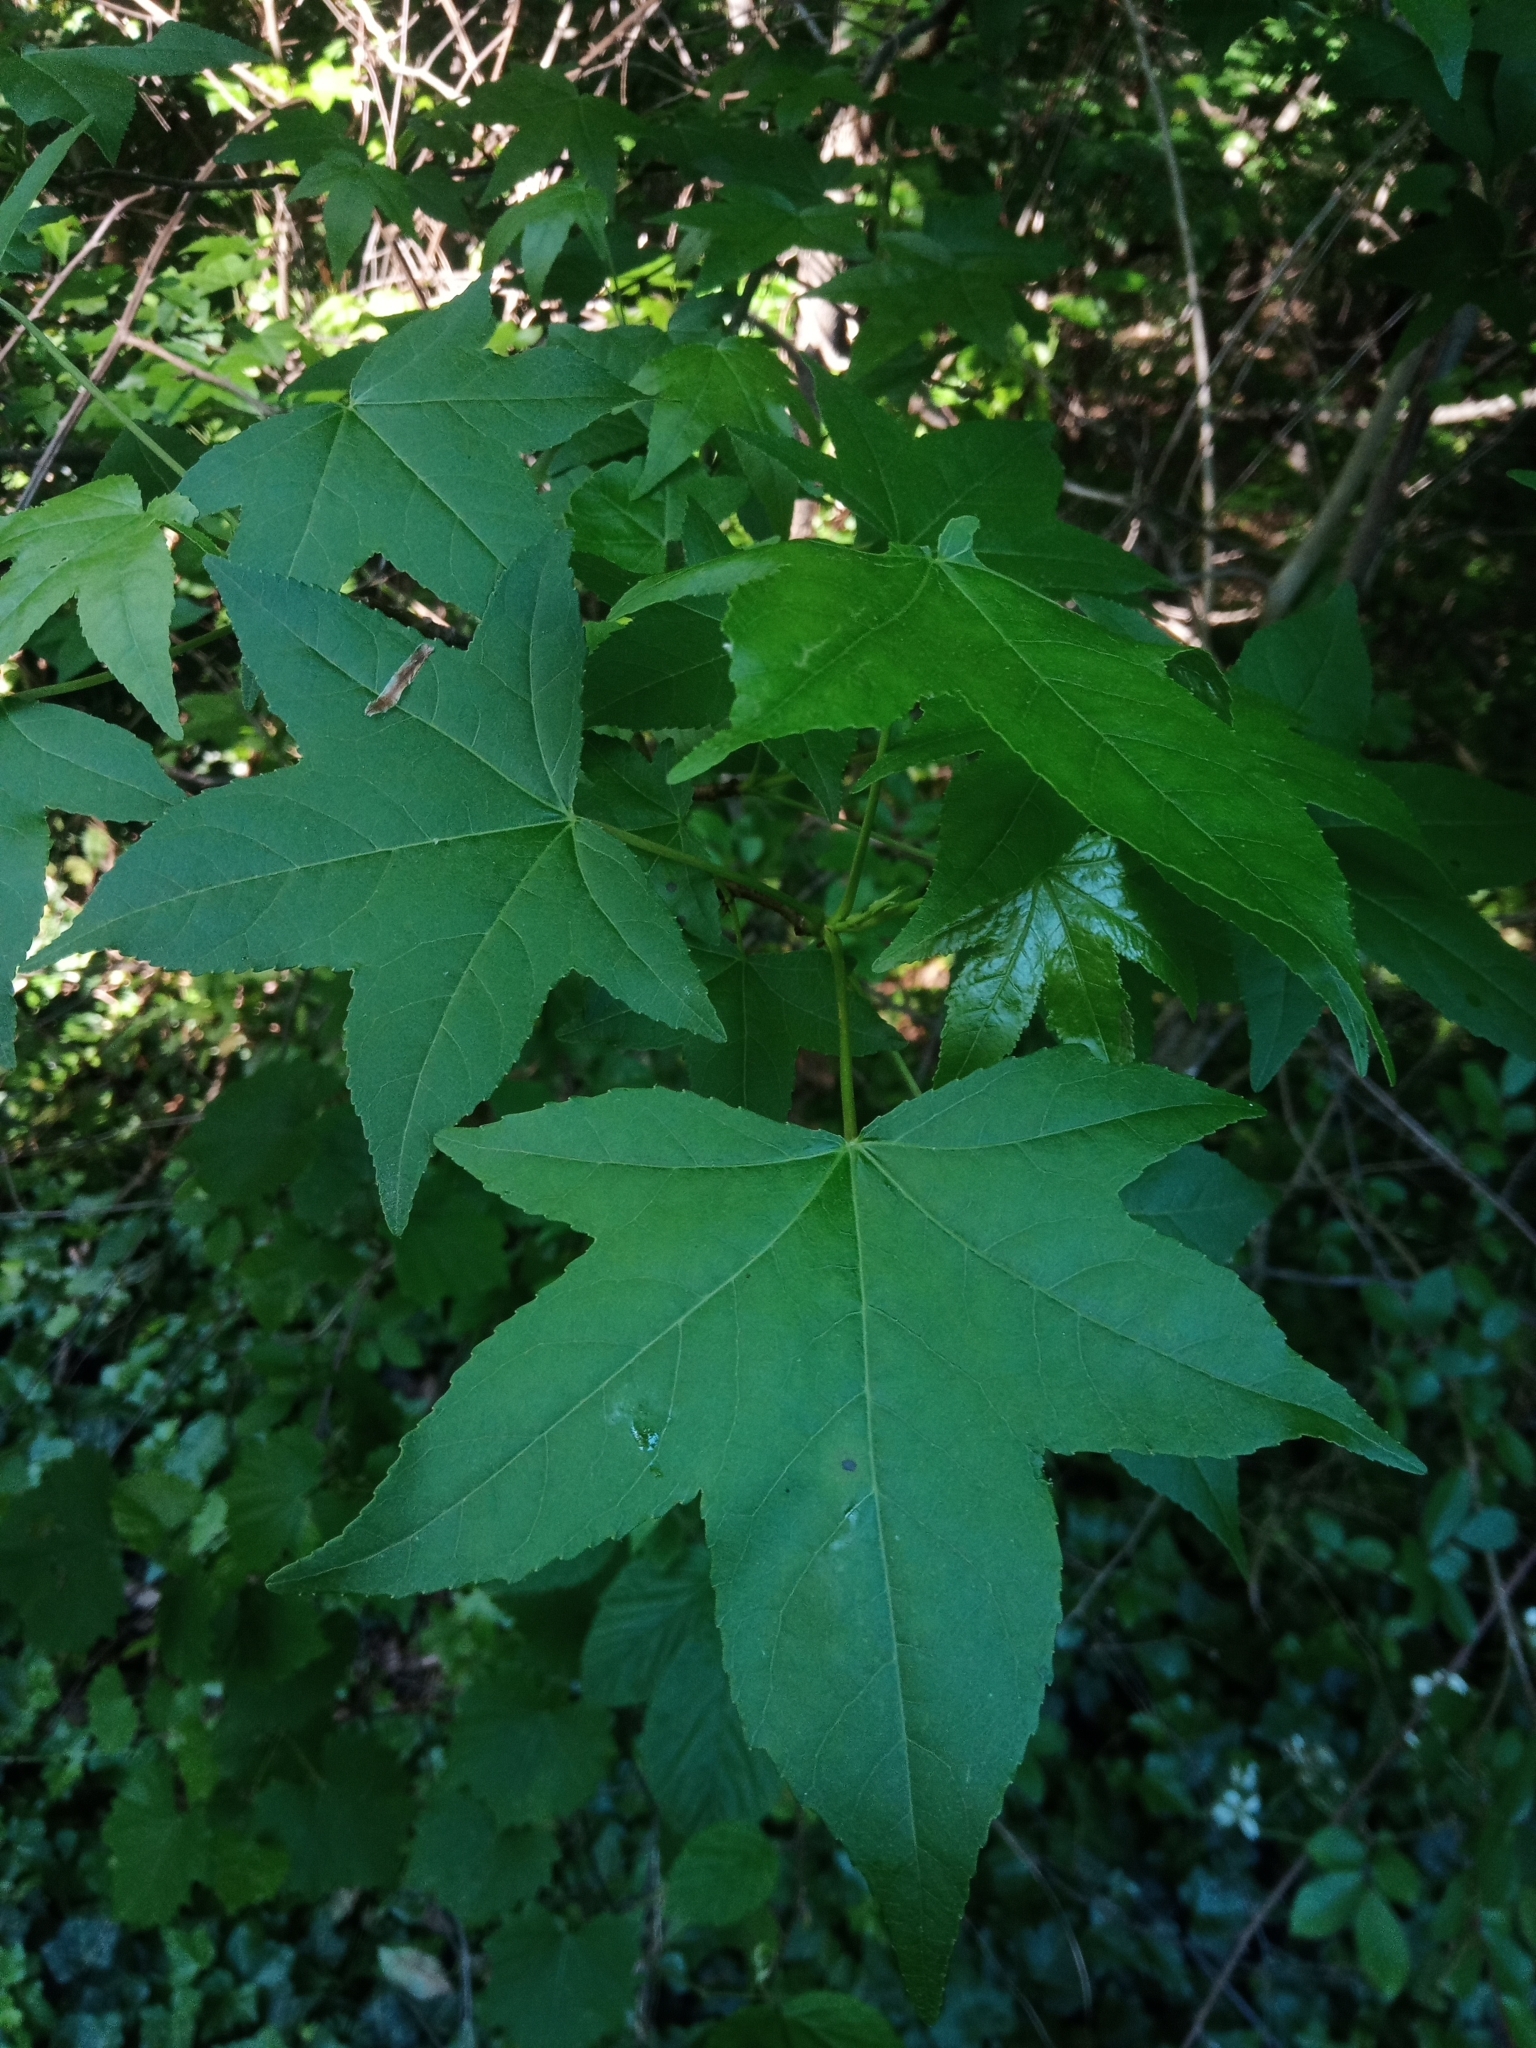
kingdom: Plantae
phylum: Tracheophyta
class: Magnoliopsida
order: Saxifragales
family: Altingiaceae
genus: Liquidambar
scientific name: Liquidambar styraciflua
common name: Sweet gum
